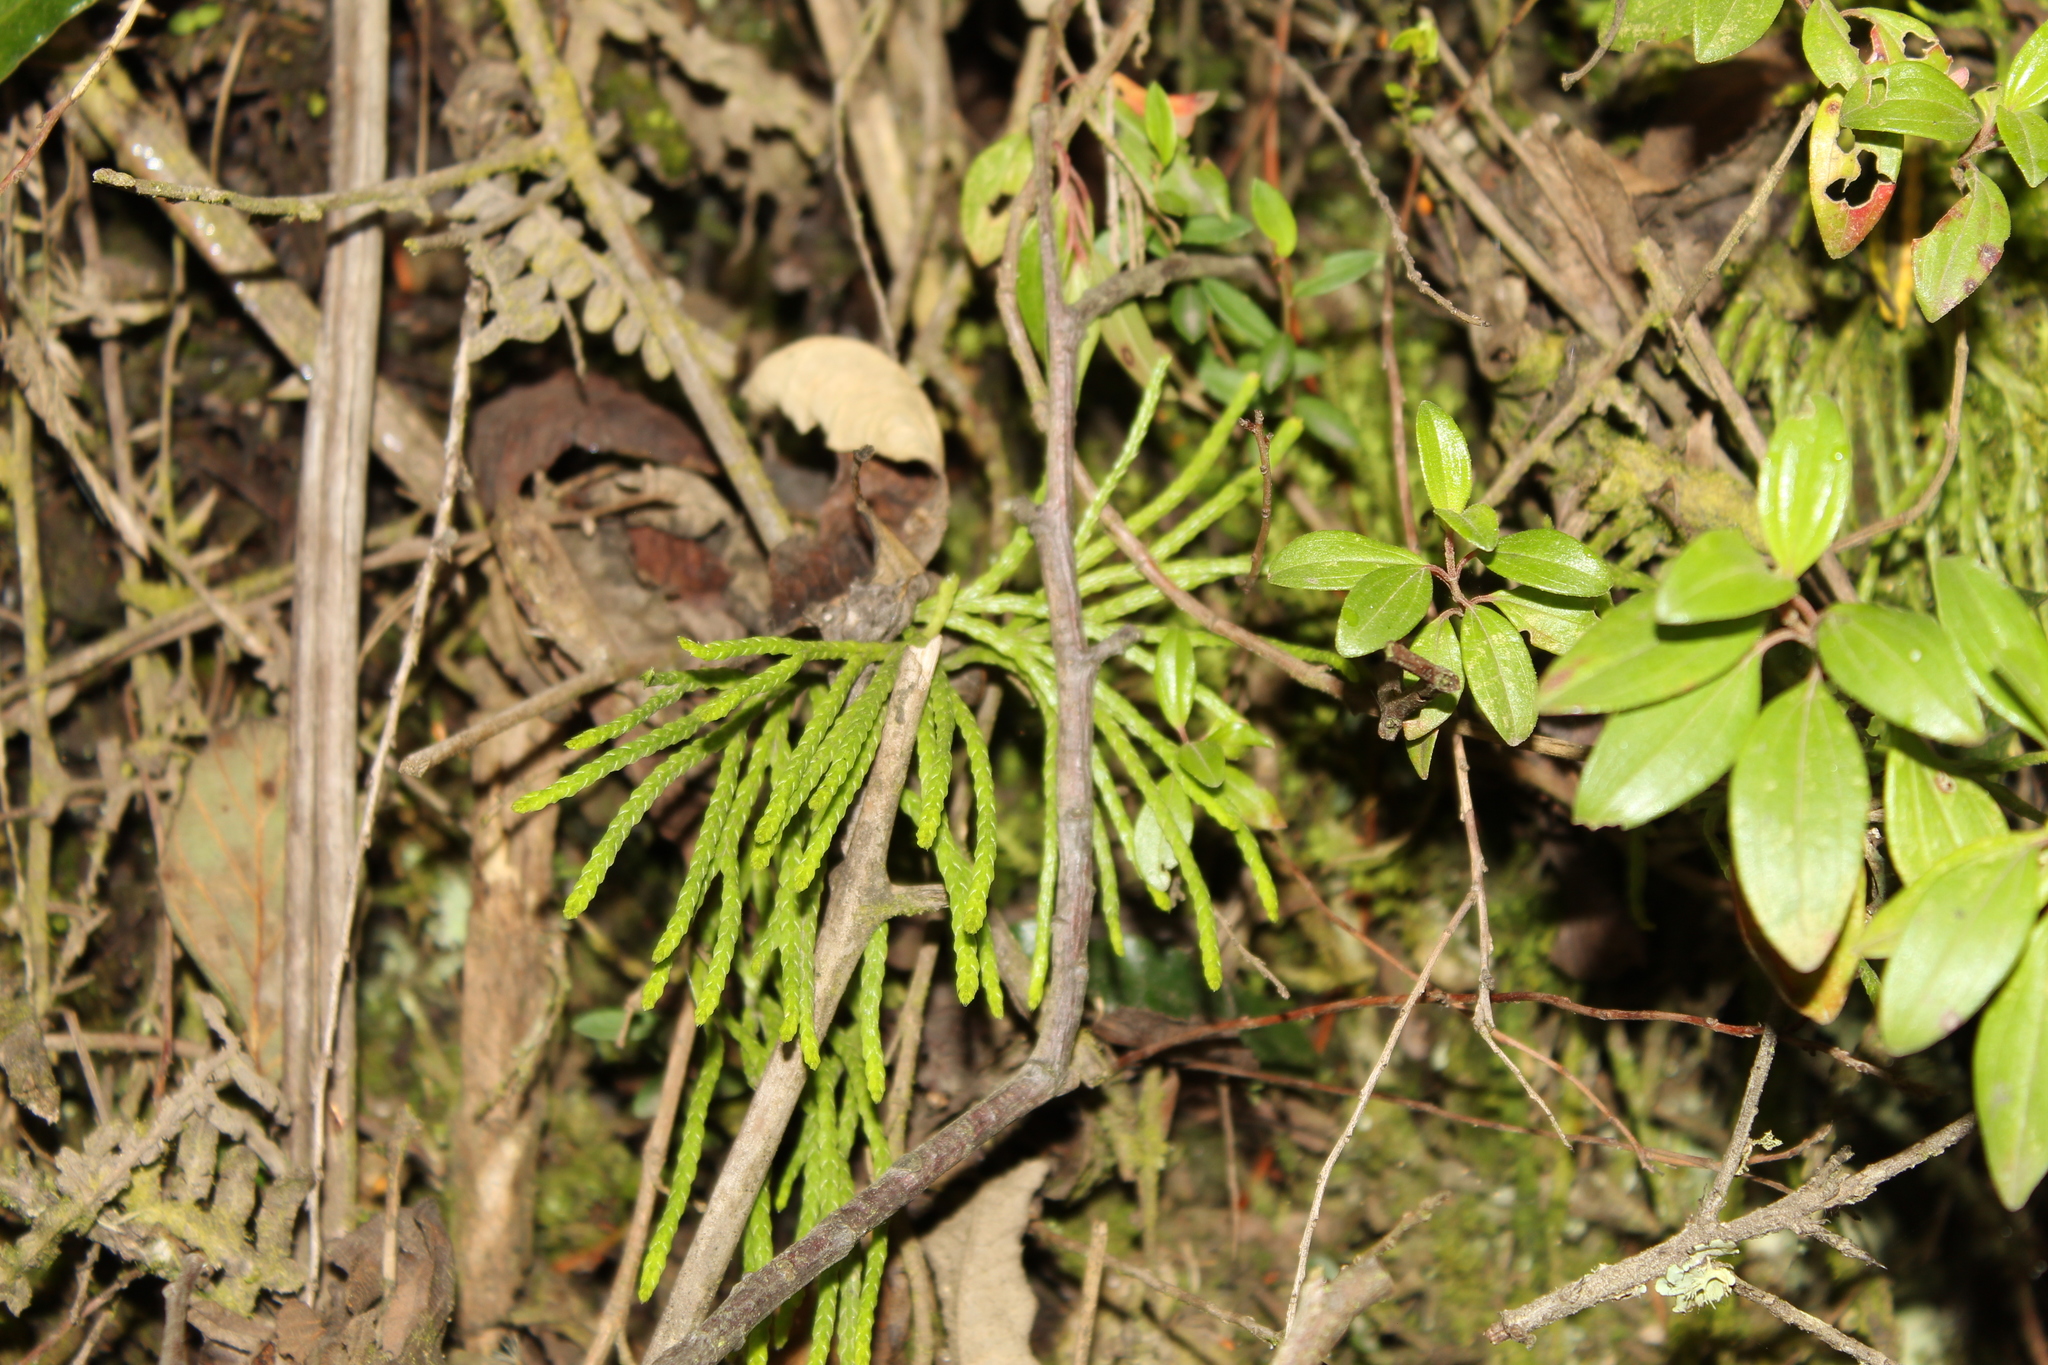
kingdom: Plantae
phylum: Tracheophyta
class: Lycopodiopsida
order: Lycopodiales
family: Lycopodiaceae
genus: Diphasiastrum
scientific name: Diphasiastrum thyoides
